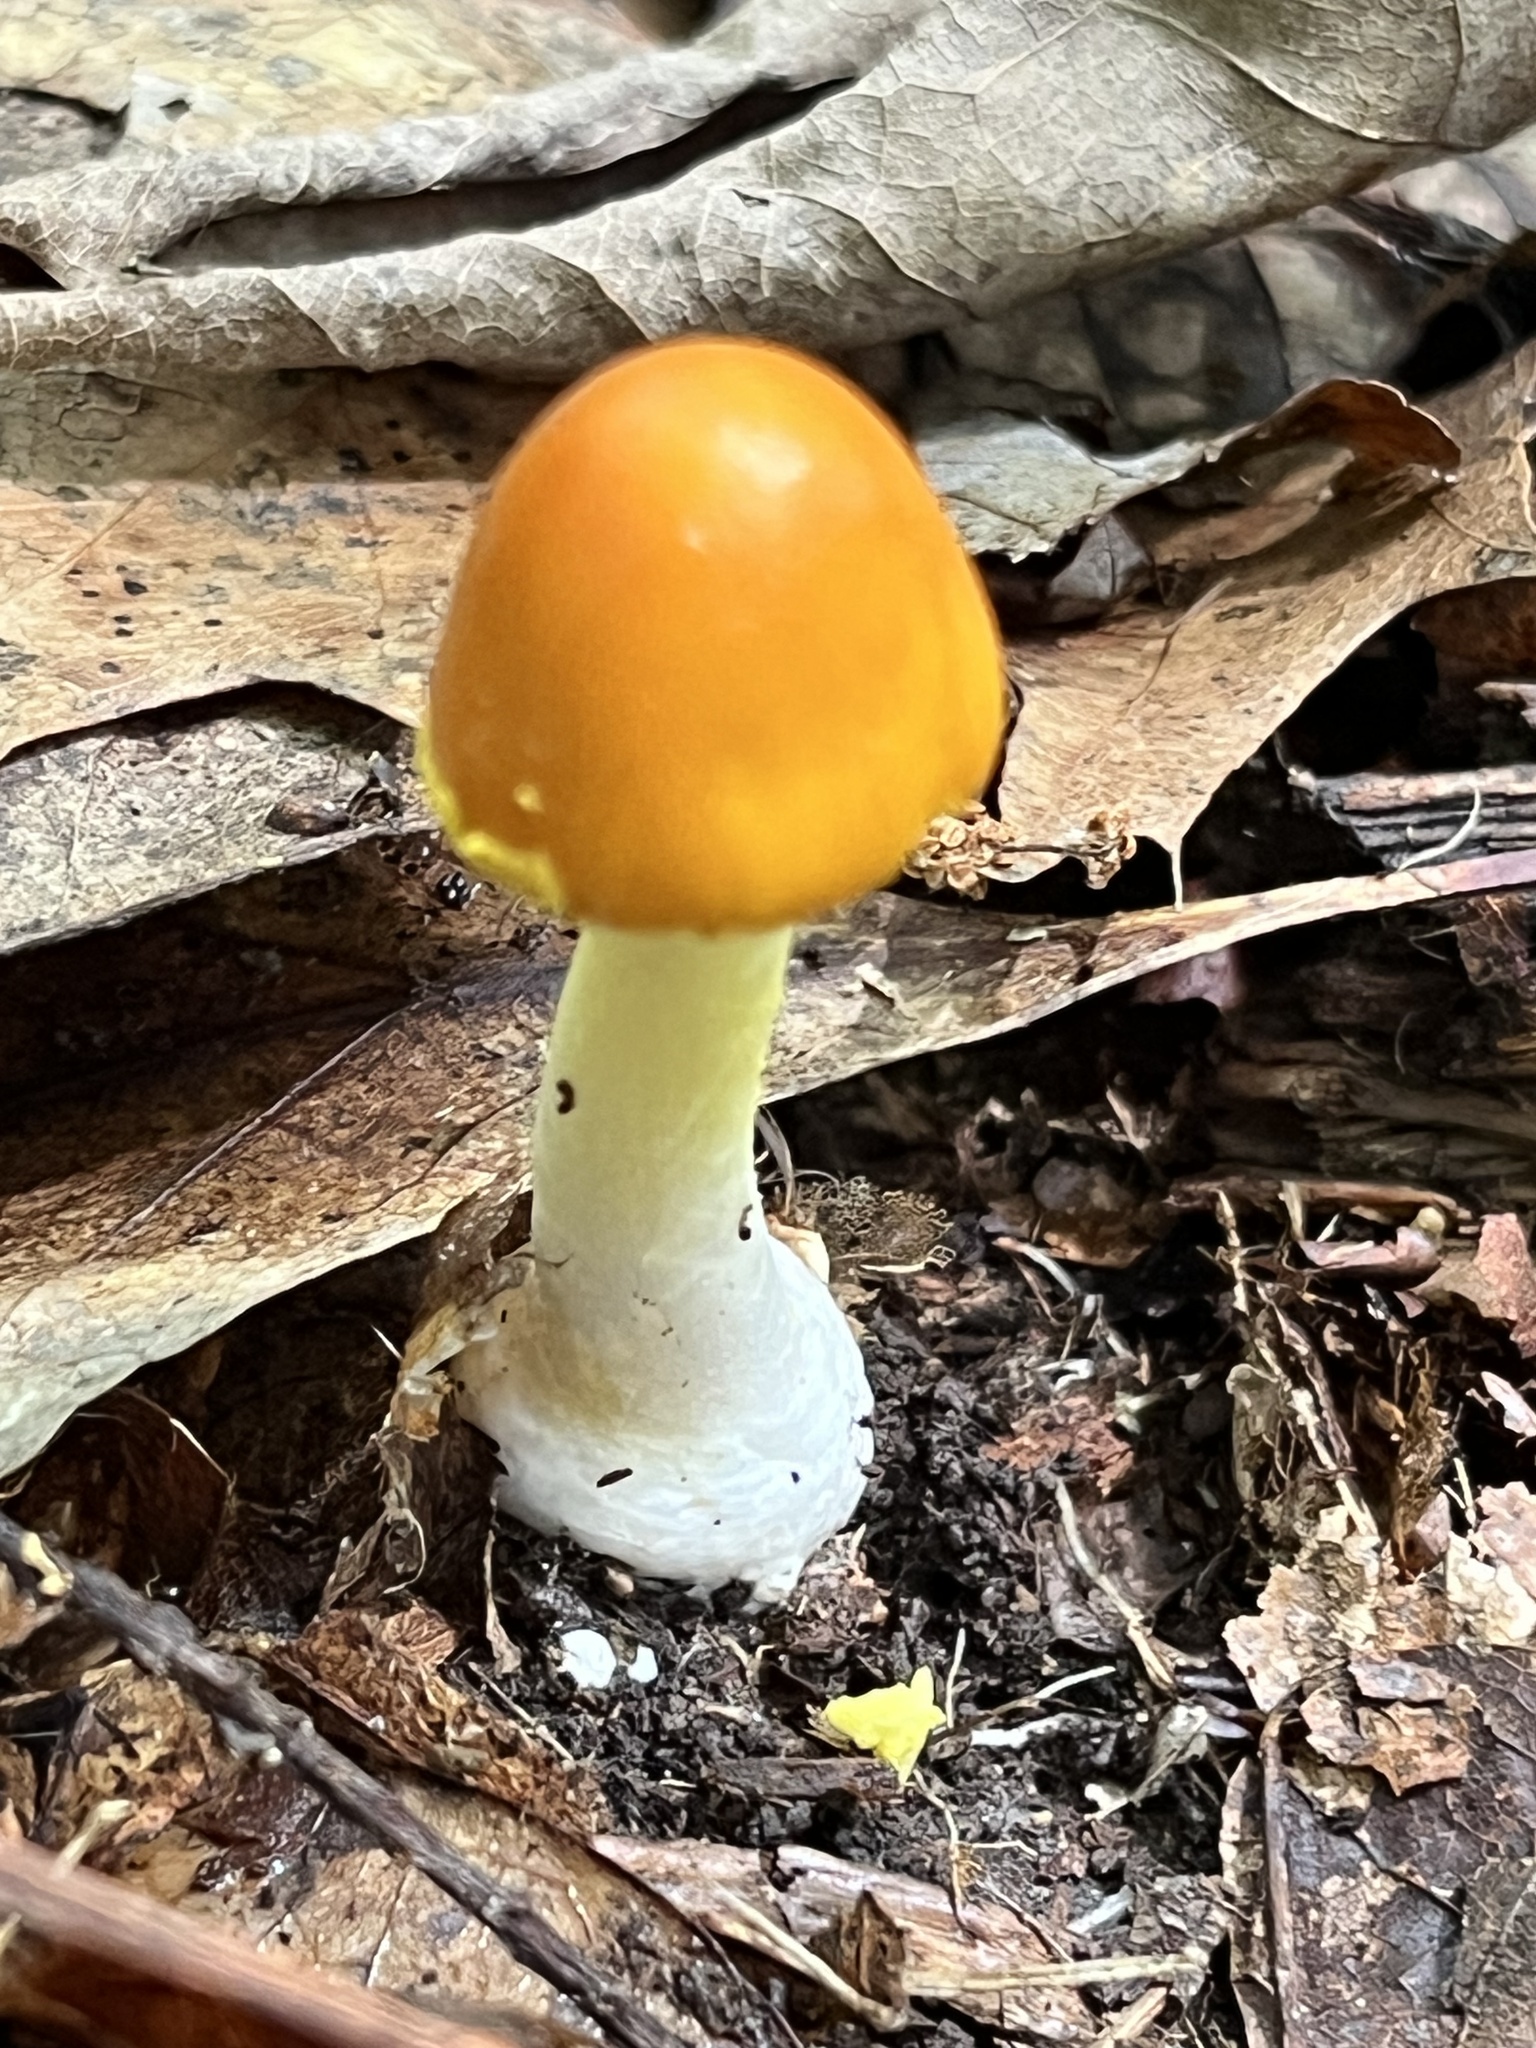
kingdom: Fungi
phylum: Basidiomycota
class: Agaricomycetes
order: Agaricales
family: Amanitaceae
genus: Amanita
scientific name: Amanita flavoconia
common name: Yellow patches
